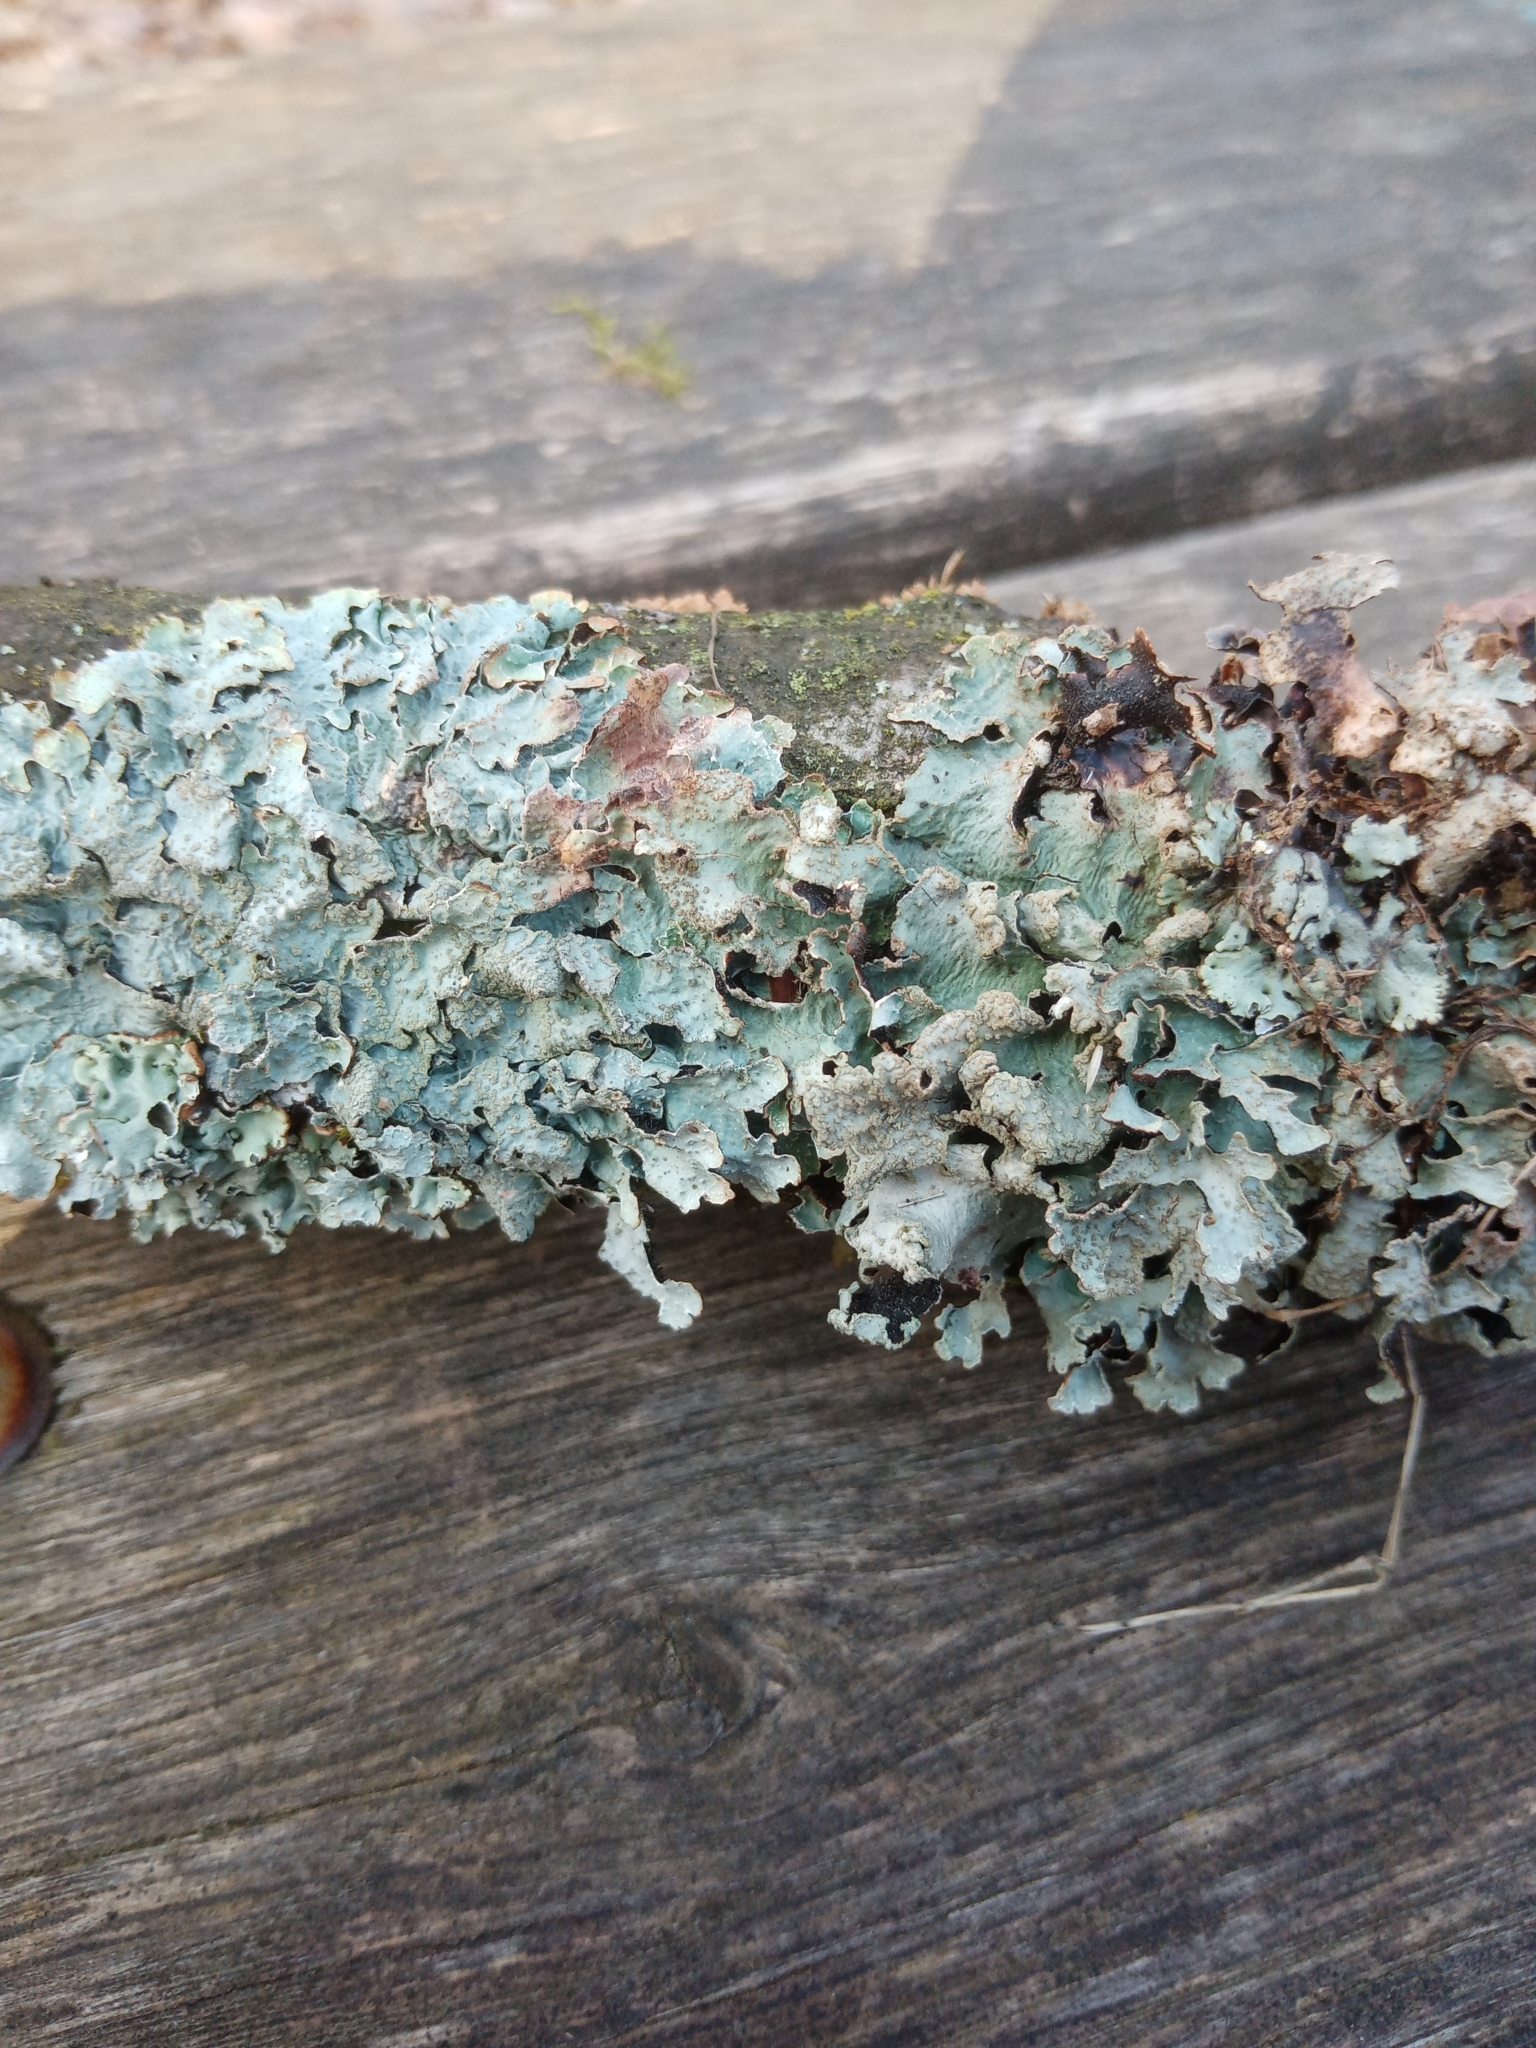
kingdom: Fungi
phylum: Ascomycota
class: Lecanoromycetes
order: Lecanorales
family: Parmeliaceae
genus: Parmelia
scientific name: Parmelia sulcata
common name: Netted shield lichen
